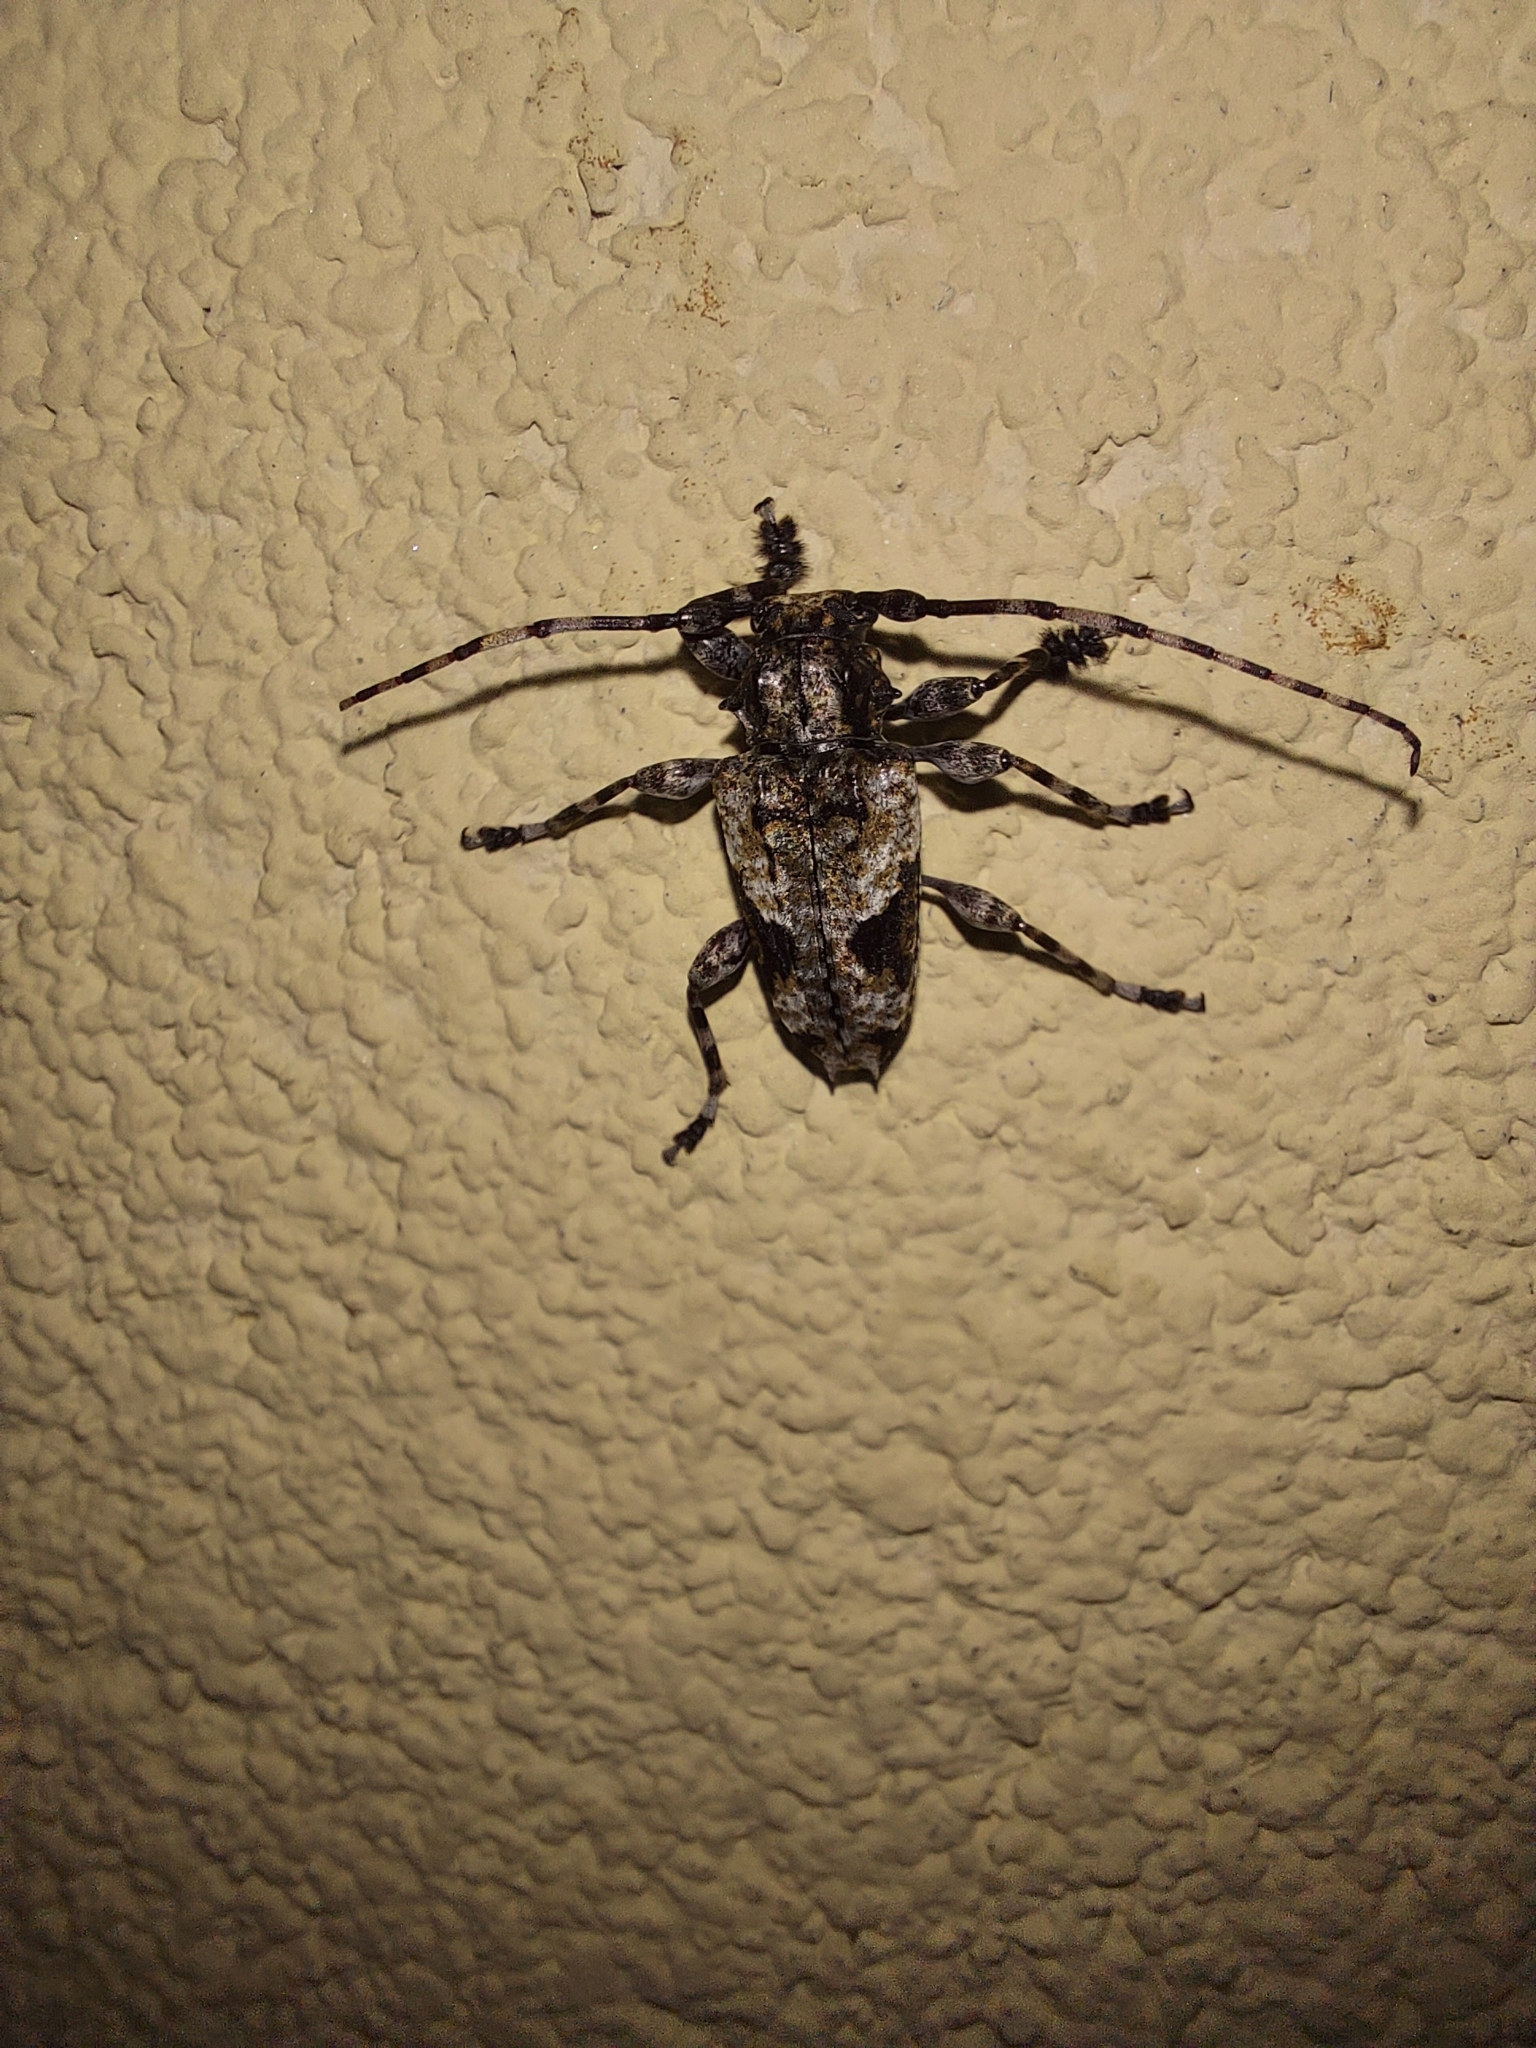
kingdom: Animalia
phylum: Arthropoda
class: Insecta
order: Coleoptera
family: Cerambycidae
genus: Psapharochrus
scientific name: Psapharochrus jaspideus
